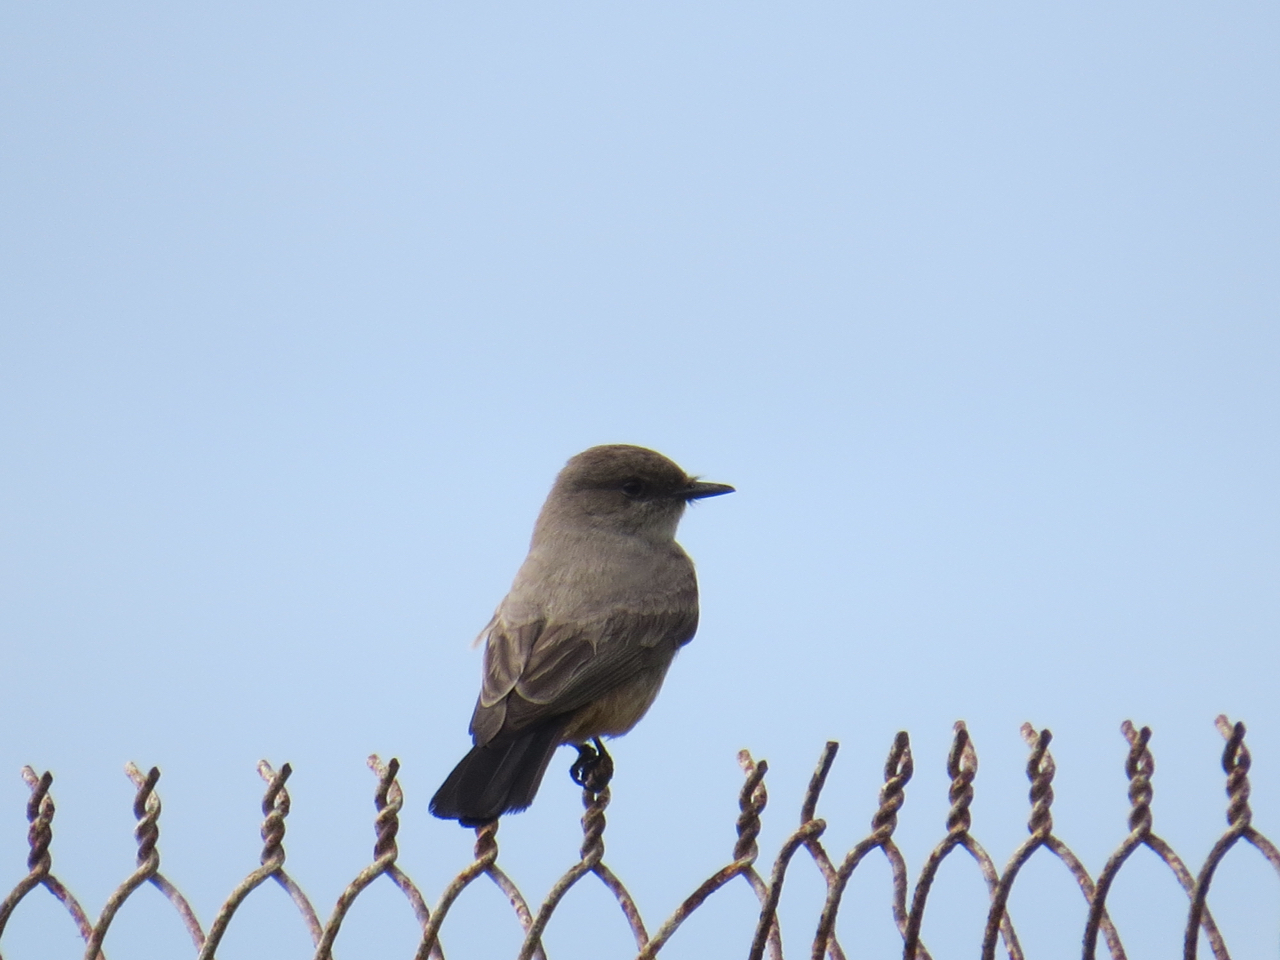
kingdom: Animalia
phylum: Chordata
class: Aves
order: Passeriformes
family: Tyrannidae
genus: Sayornis
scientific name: Sayornis saya
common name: Say's phoebe
